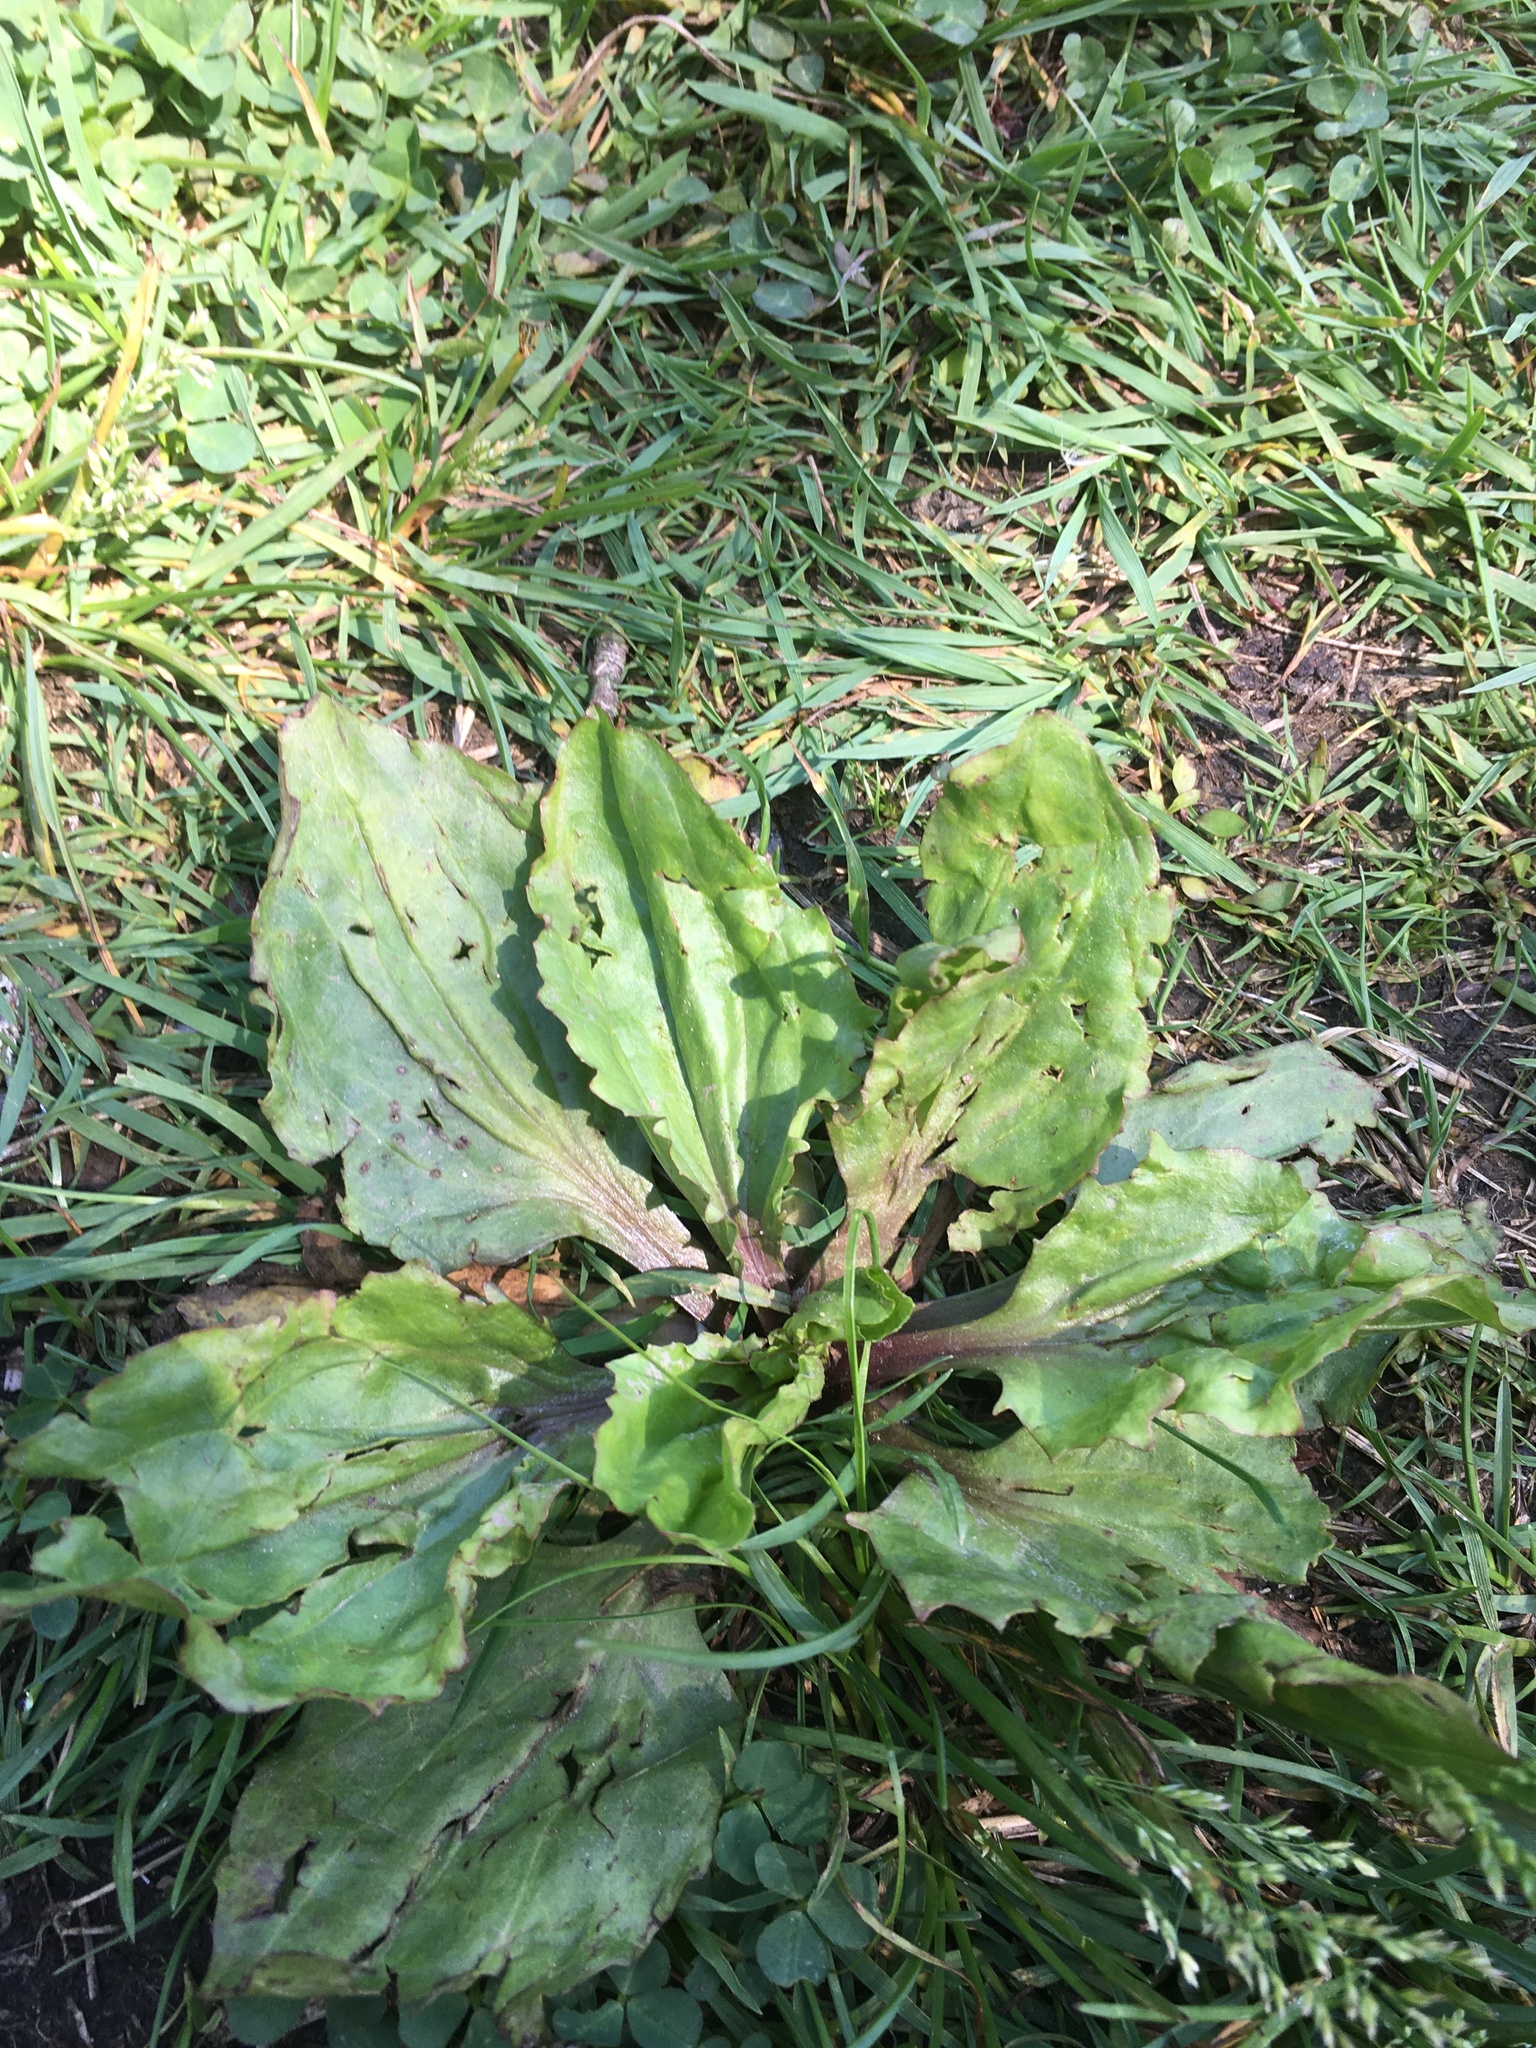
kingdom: Plantae
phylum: Tracheophyta
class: Magnoliopsida
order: Lamiales
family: Plantaginaceae
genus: Plantago
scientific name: Plantago rugelii
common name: American plantain
